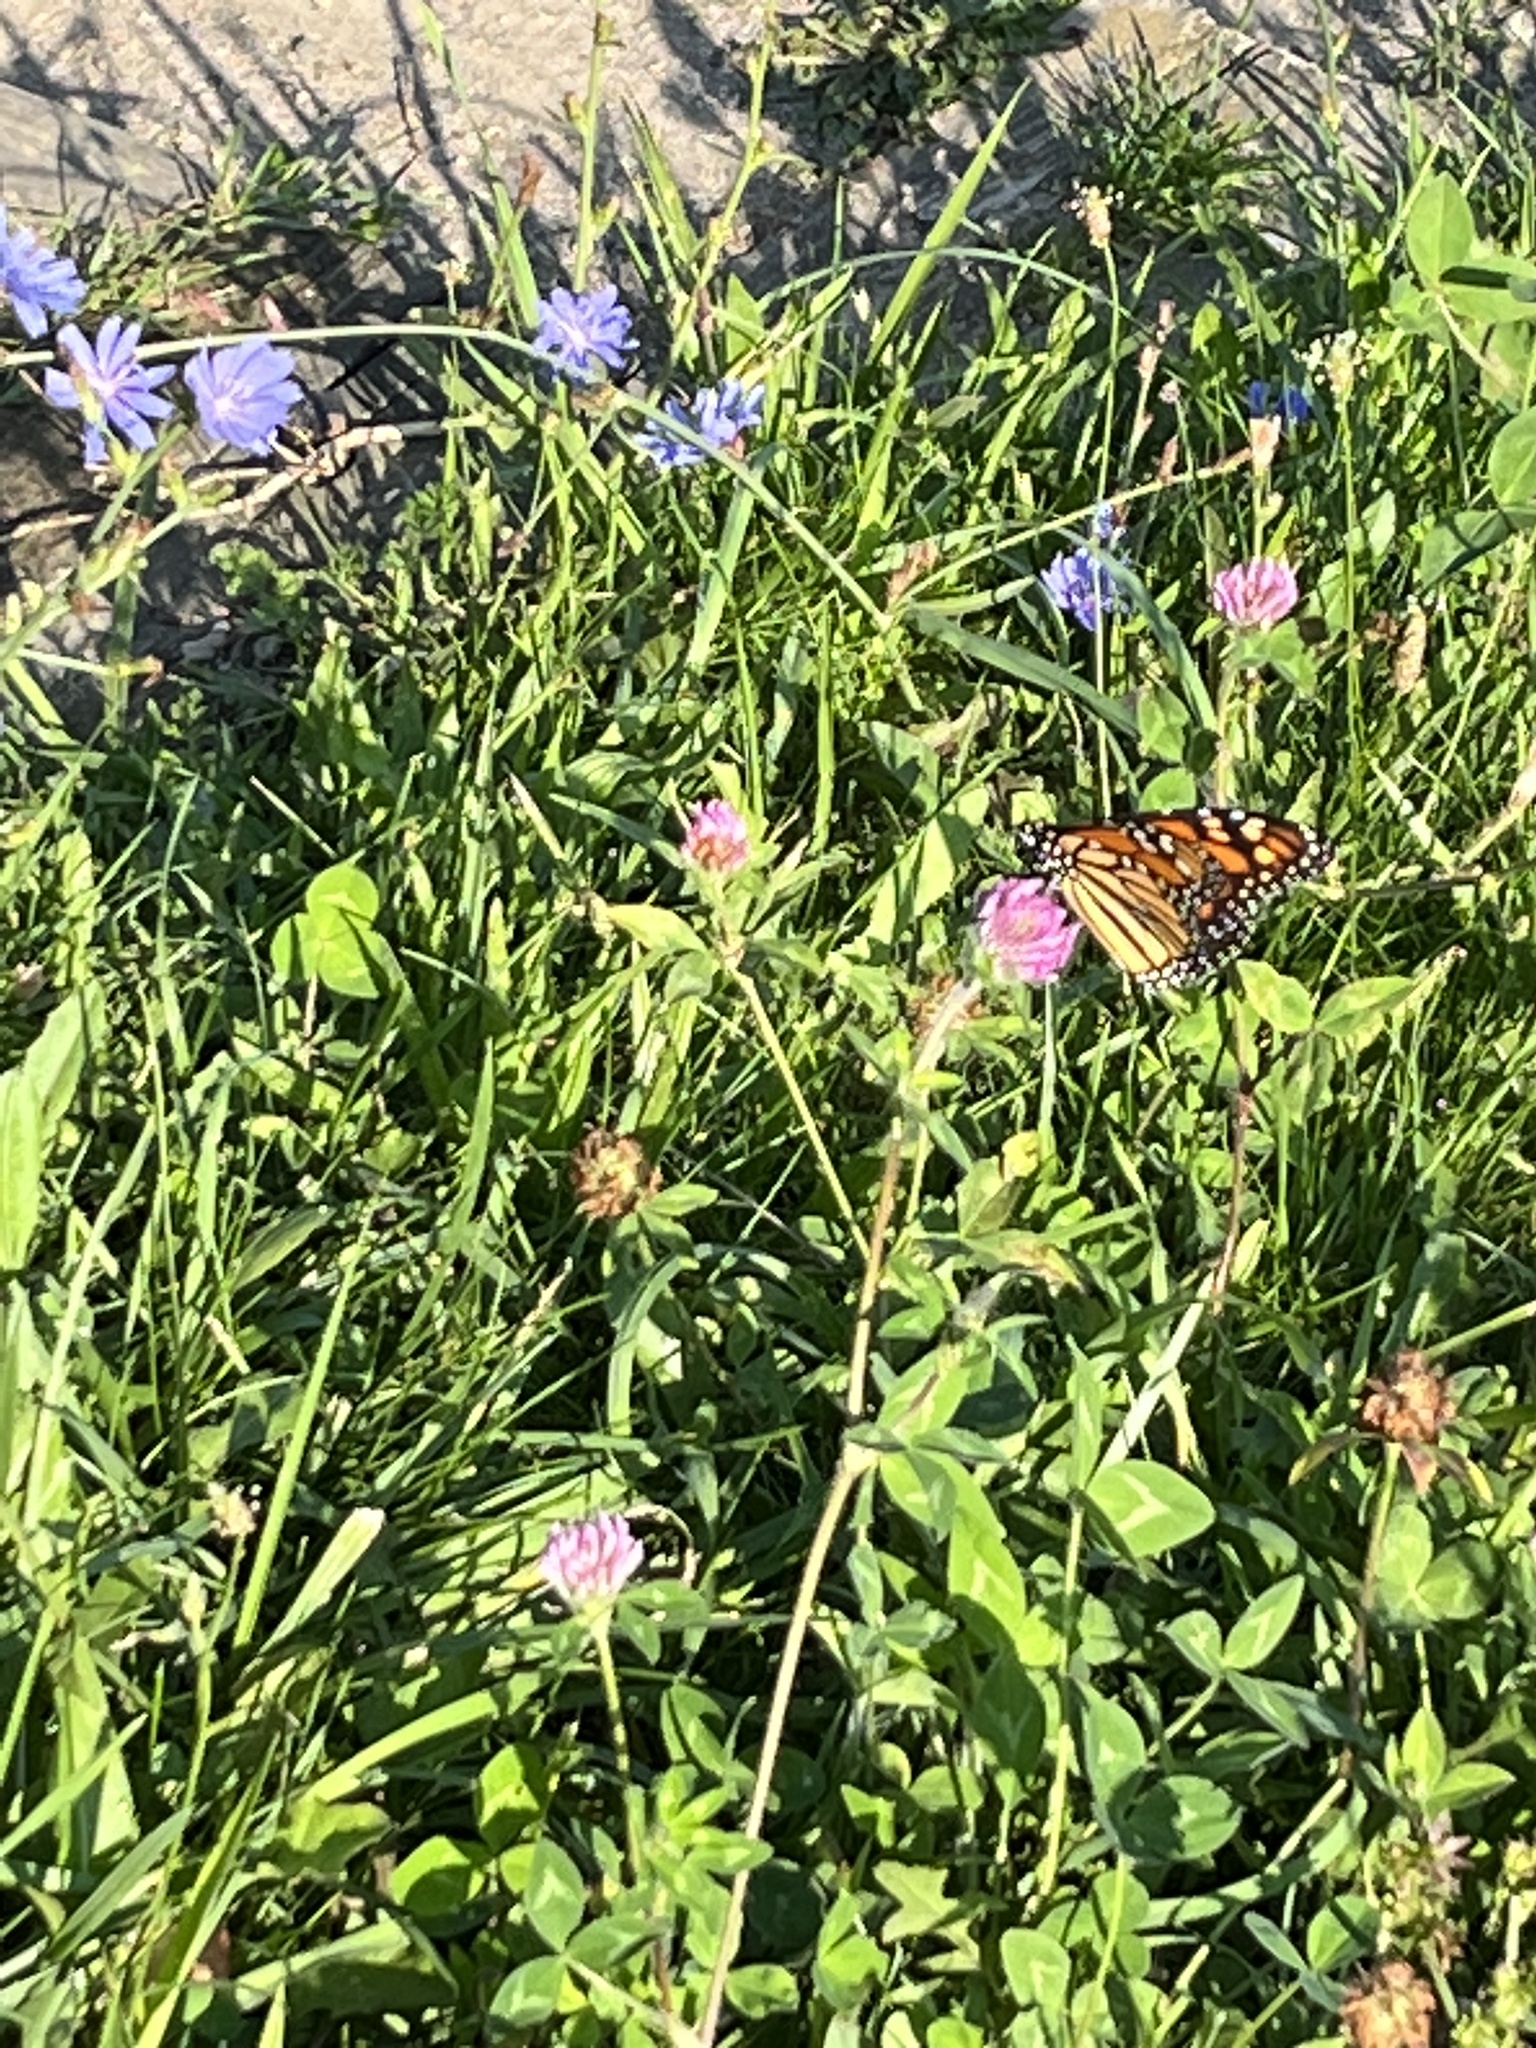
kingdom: Animalia
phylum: Arthropoda
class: Insecta
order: Lepidoptera
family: Nymphalidae
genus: Danaus
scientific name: Danaus plexippus
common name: Monarch
